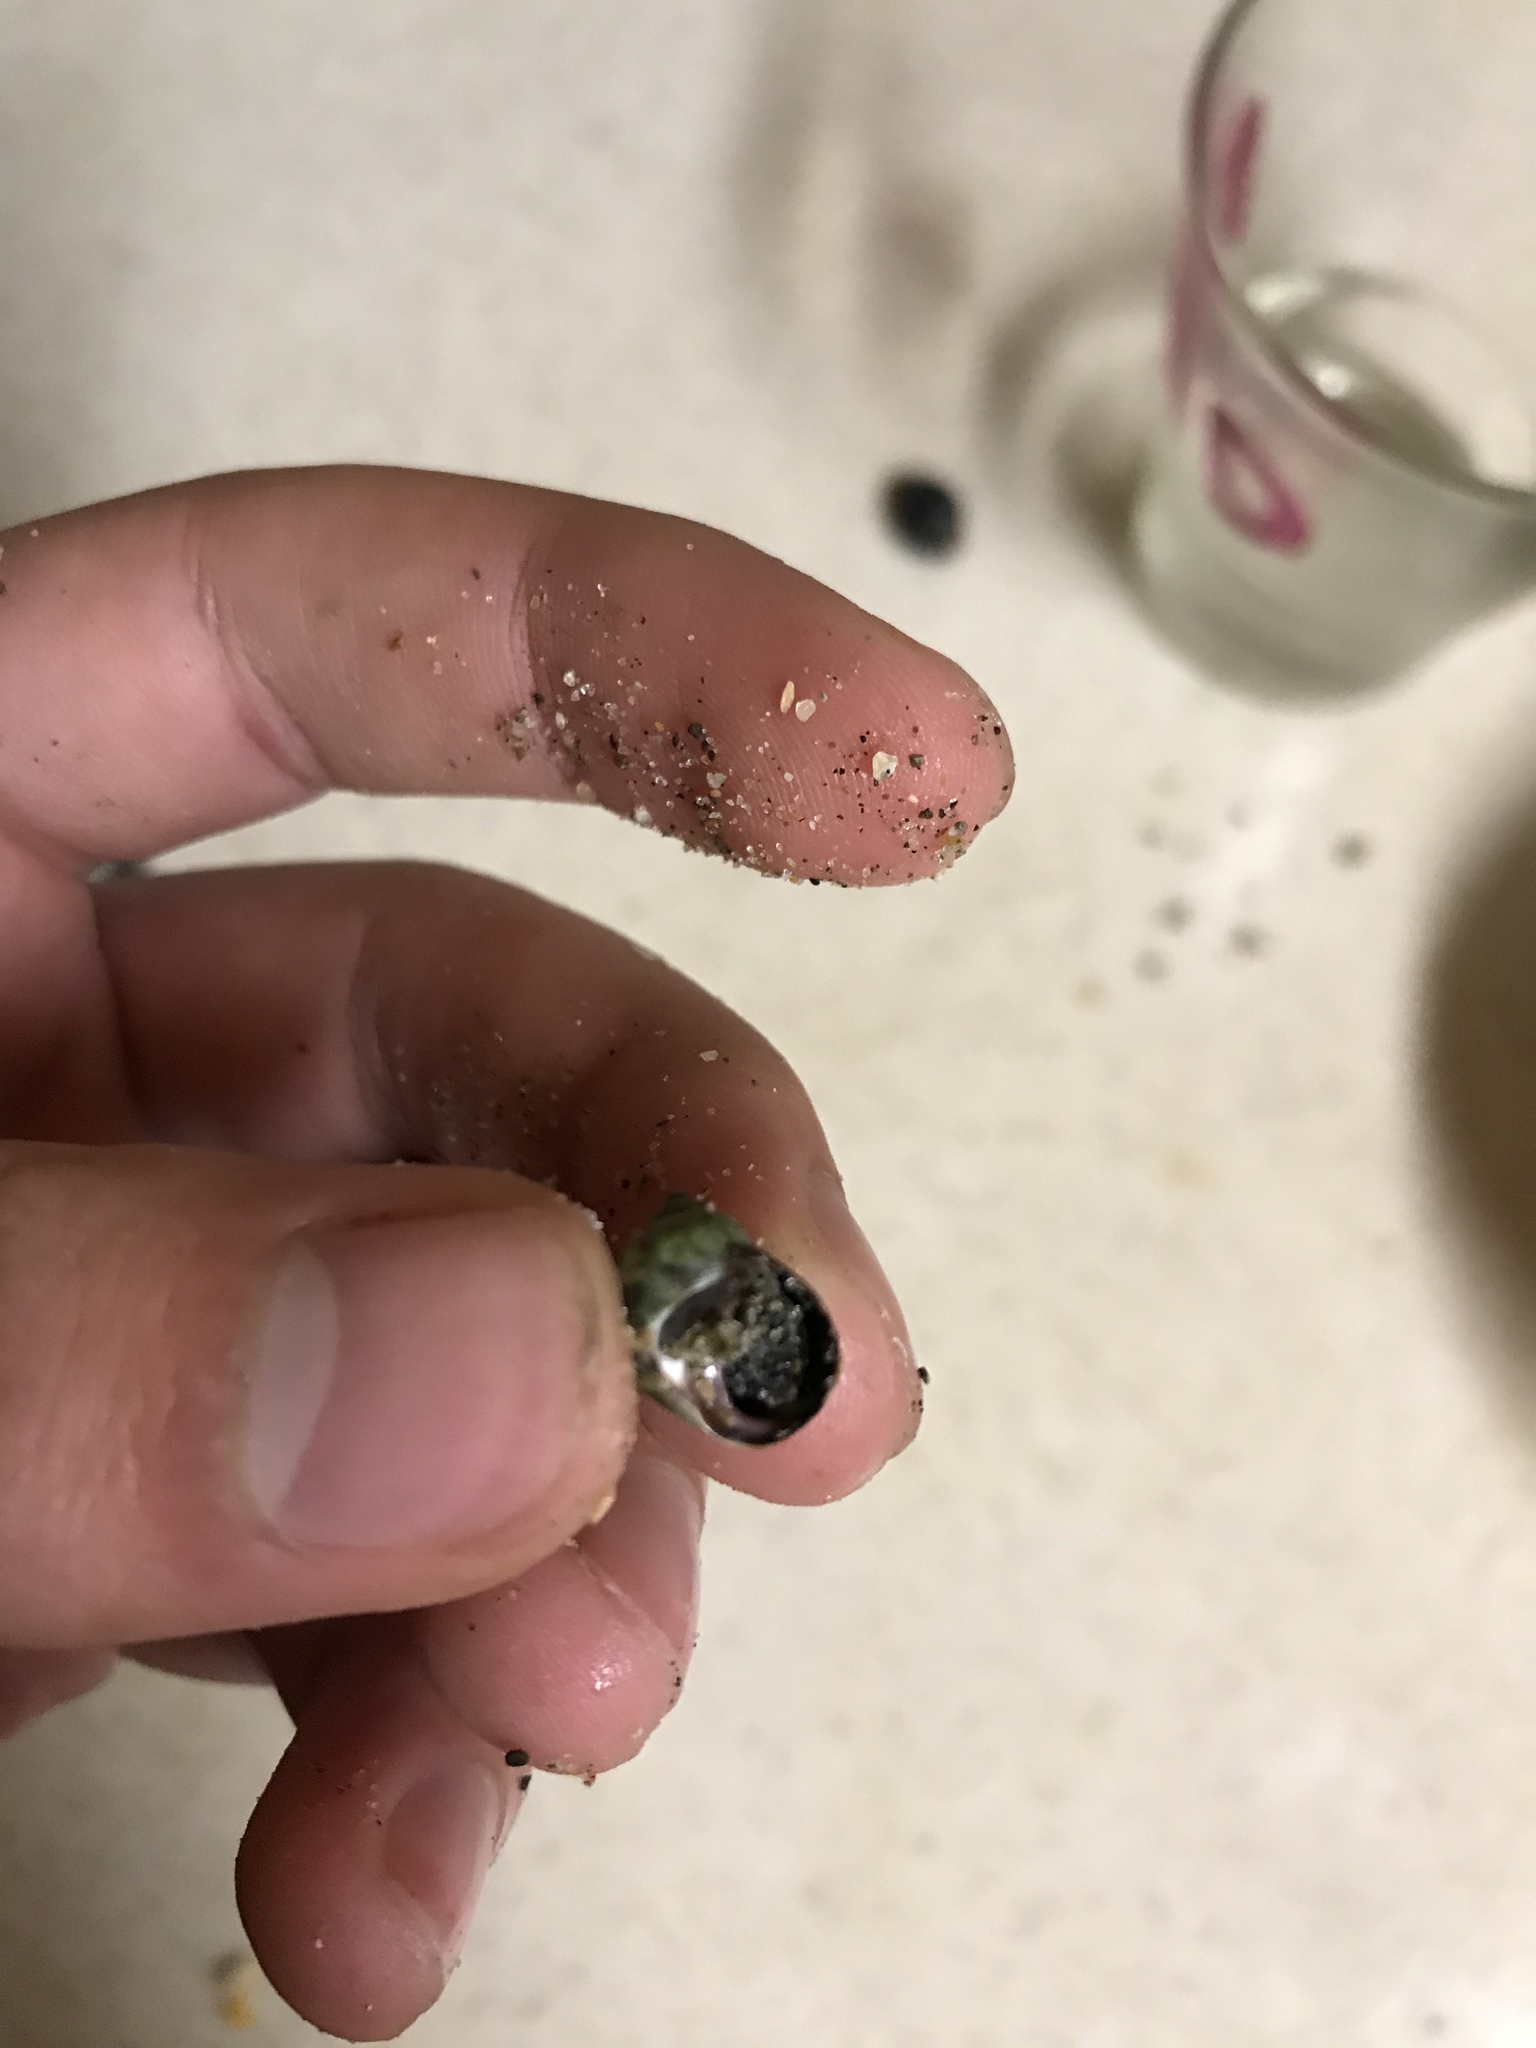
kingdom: Animalia
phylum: Mollusca
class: Gastropoda
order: Littorinimorpha
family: Littorinidae
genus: Littorina
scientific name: Littorina keenae
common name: Eroded periwinkle
